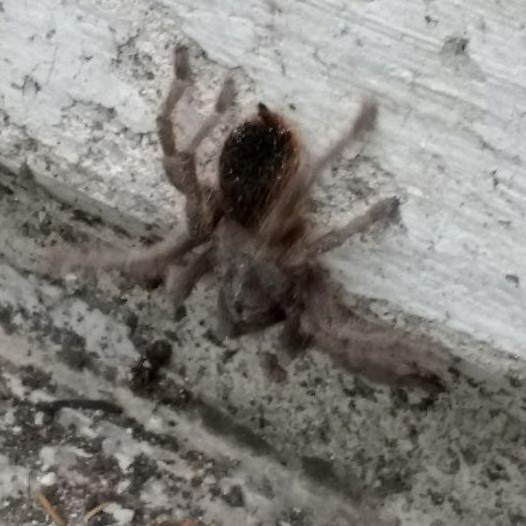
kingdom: Animalia
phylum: Arthropoda
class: Arachnida
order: Araneae
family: Theraphosidae
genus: Aphonopelma
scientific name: Aphonopelma anitahoffmannae
